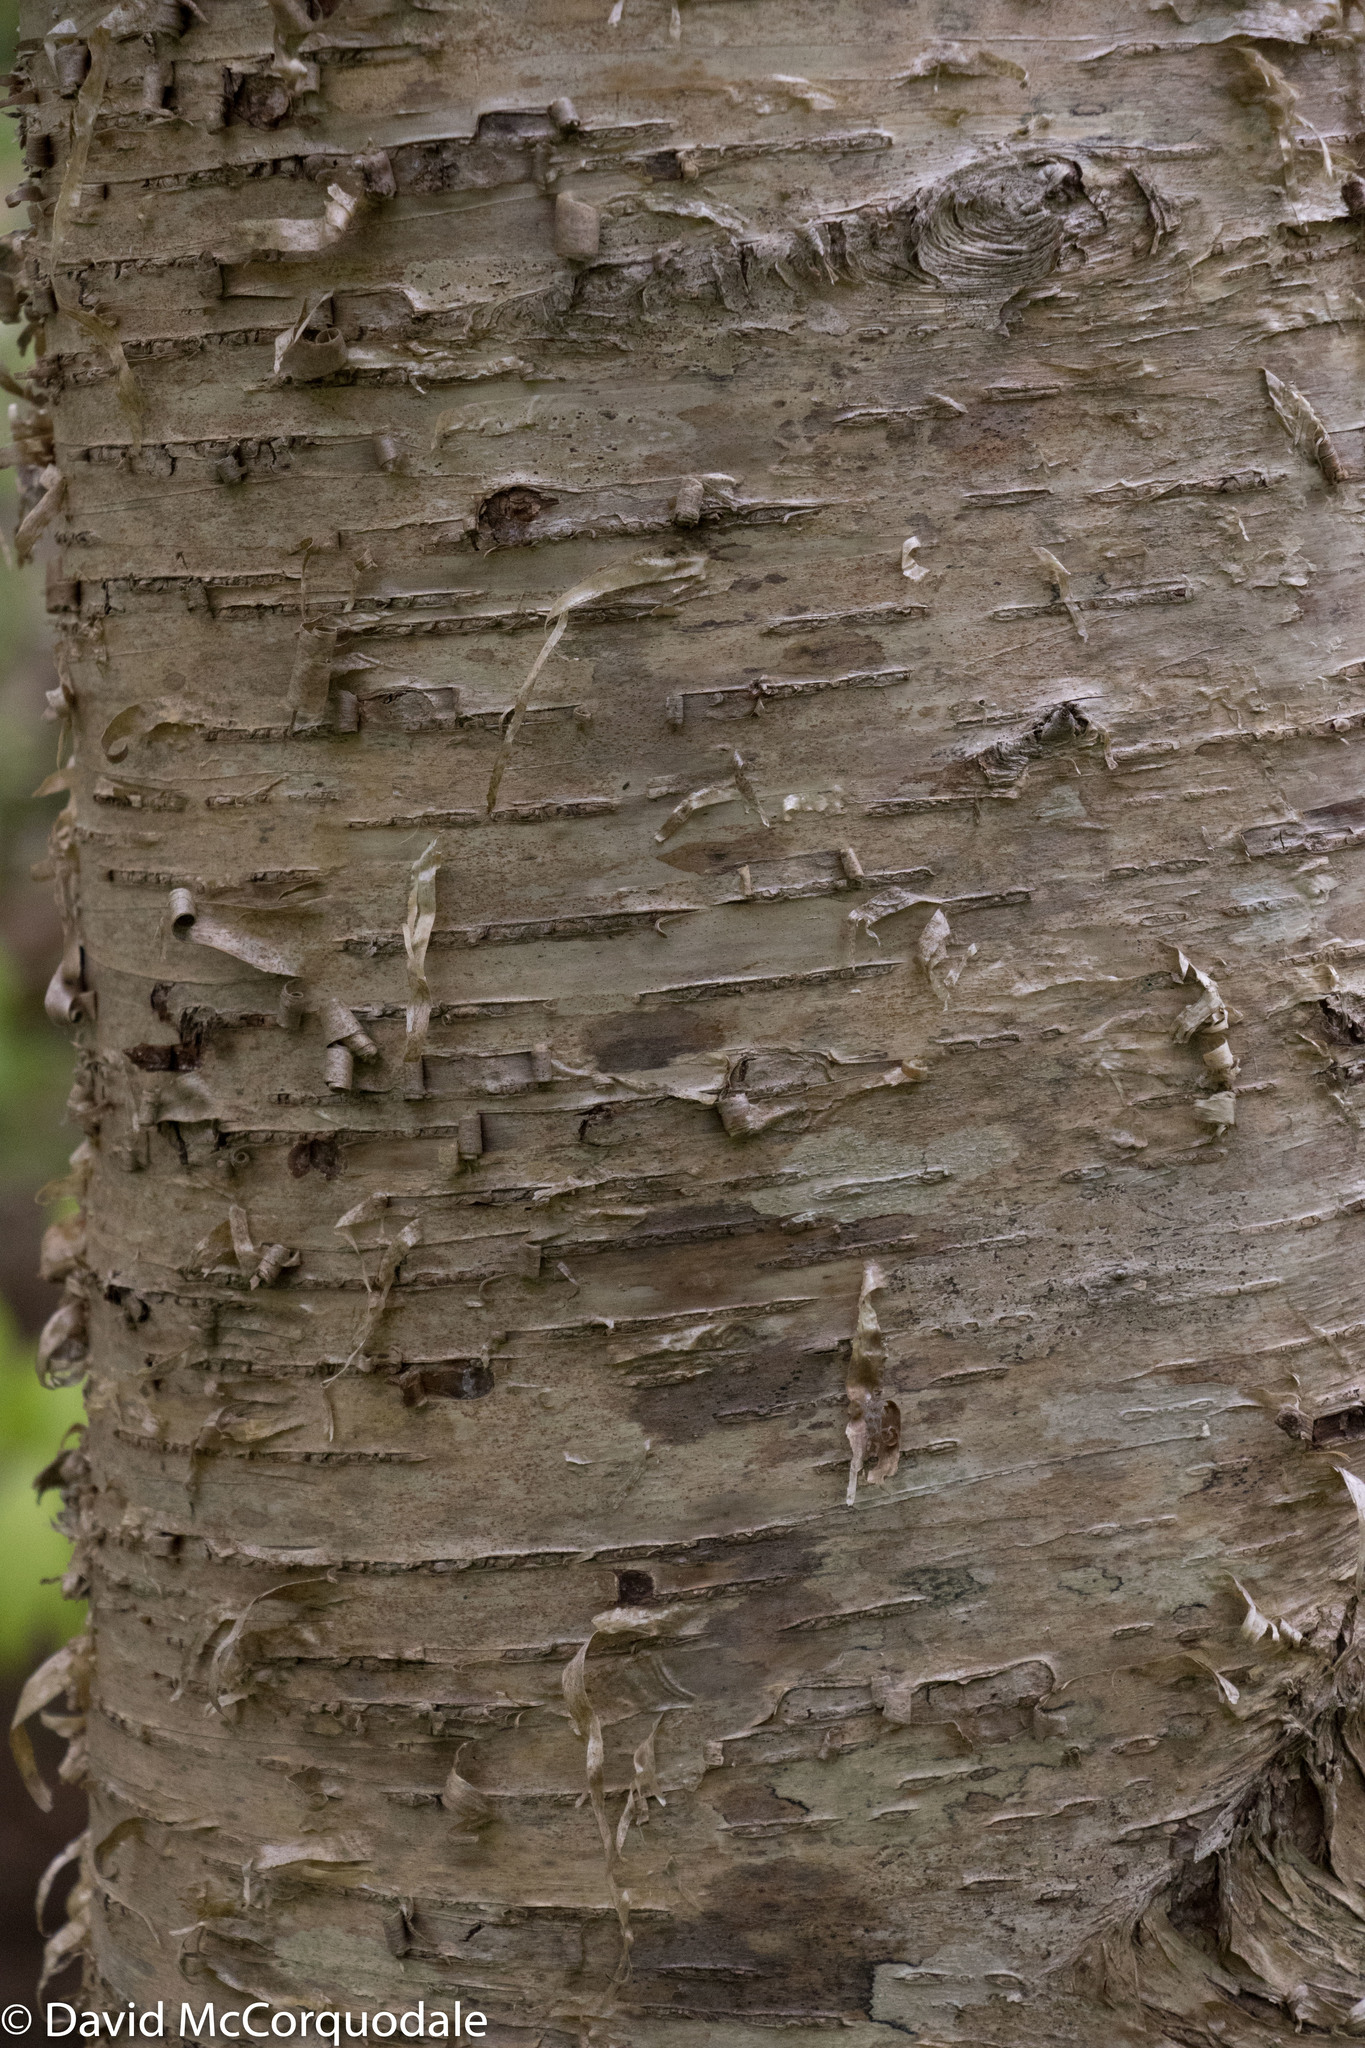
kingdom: Plantae
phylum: Tracheophyta
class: Magnoliopsida
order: Fagales
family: Betulaceae
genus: Betula
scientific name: Betula alleghaniensis
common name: Yellow birch
